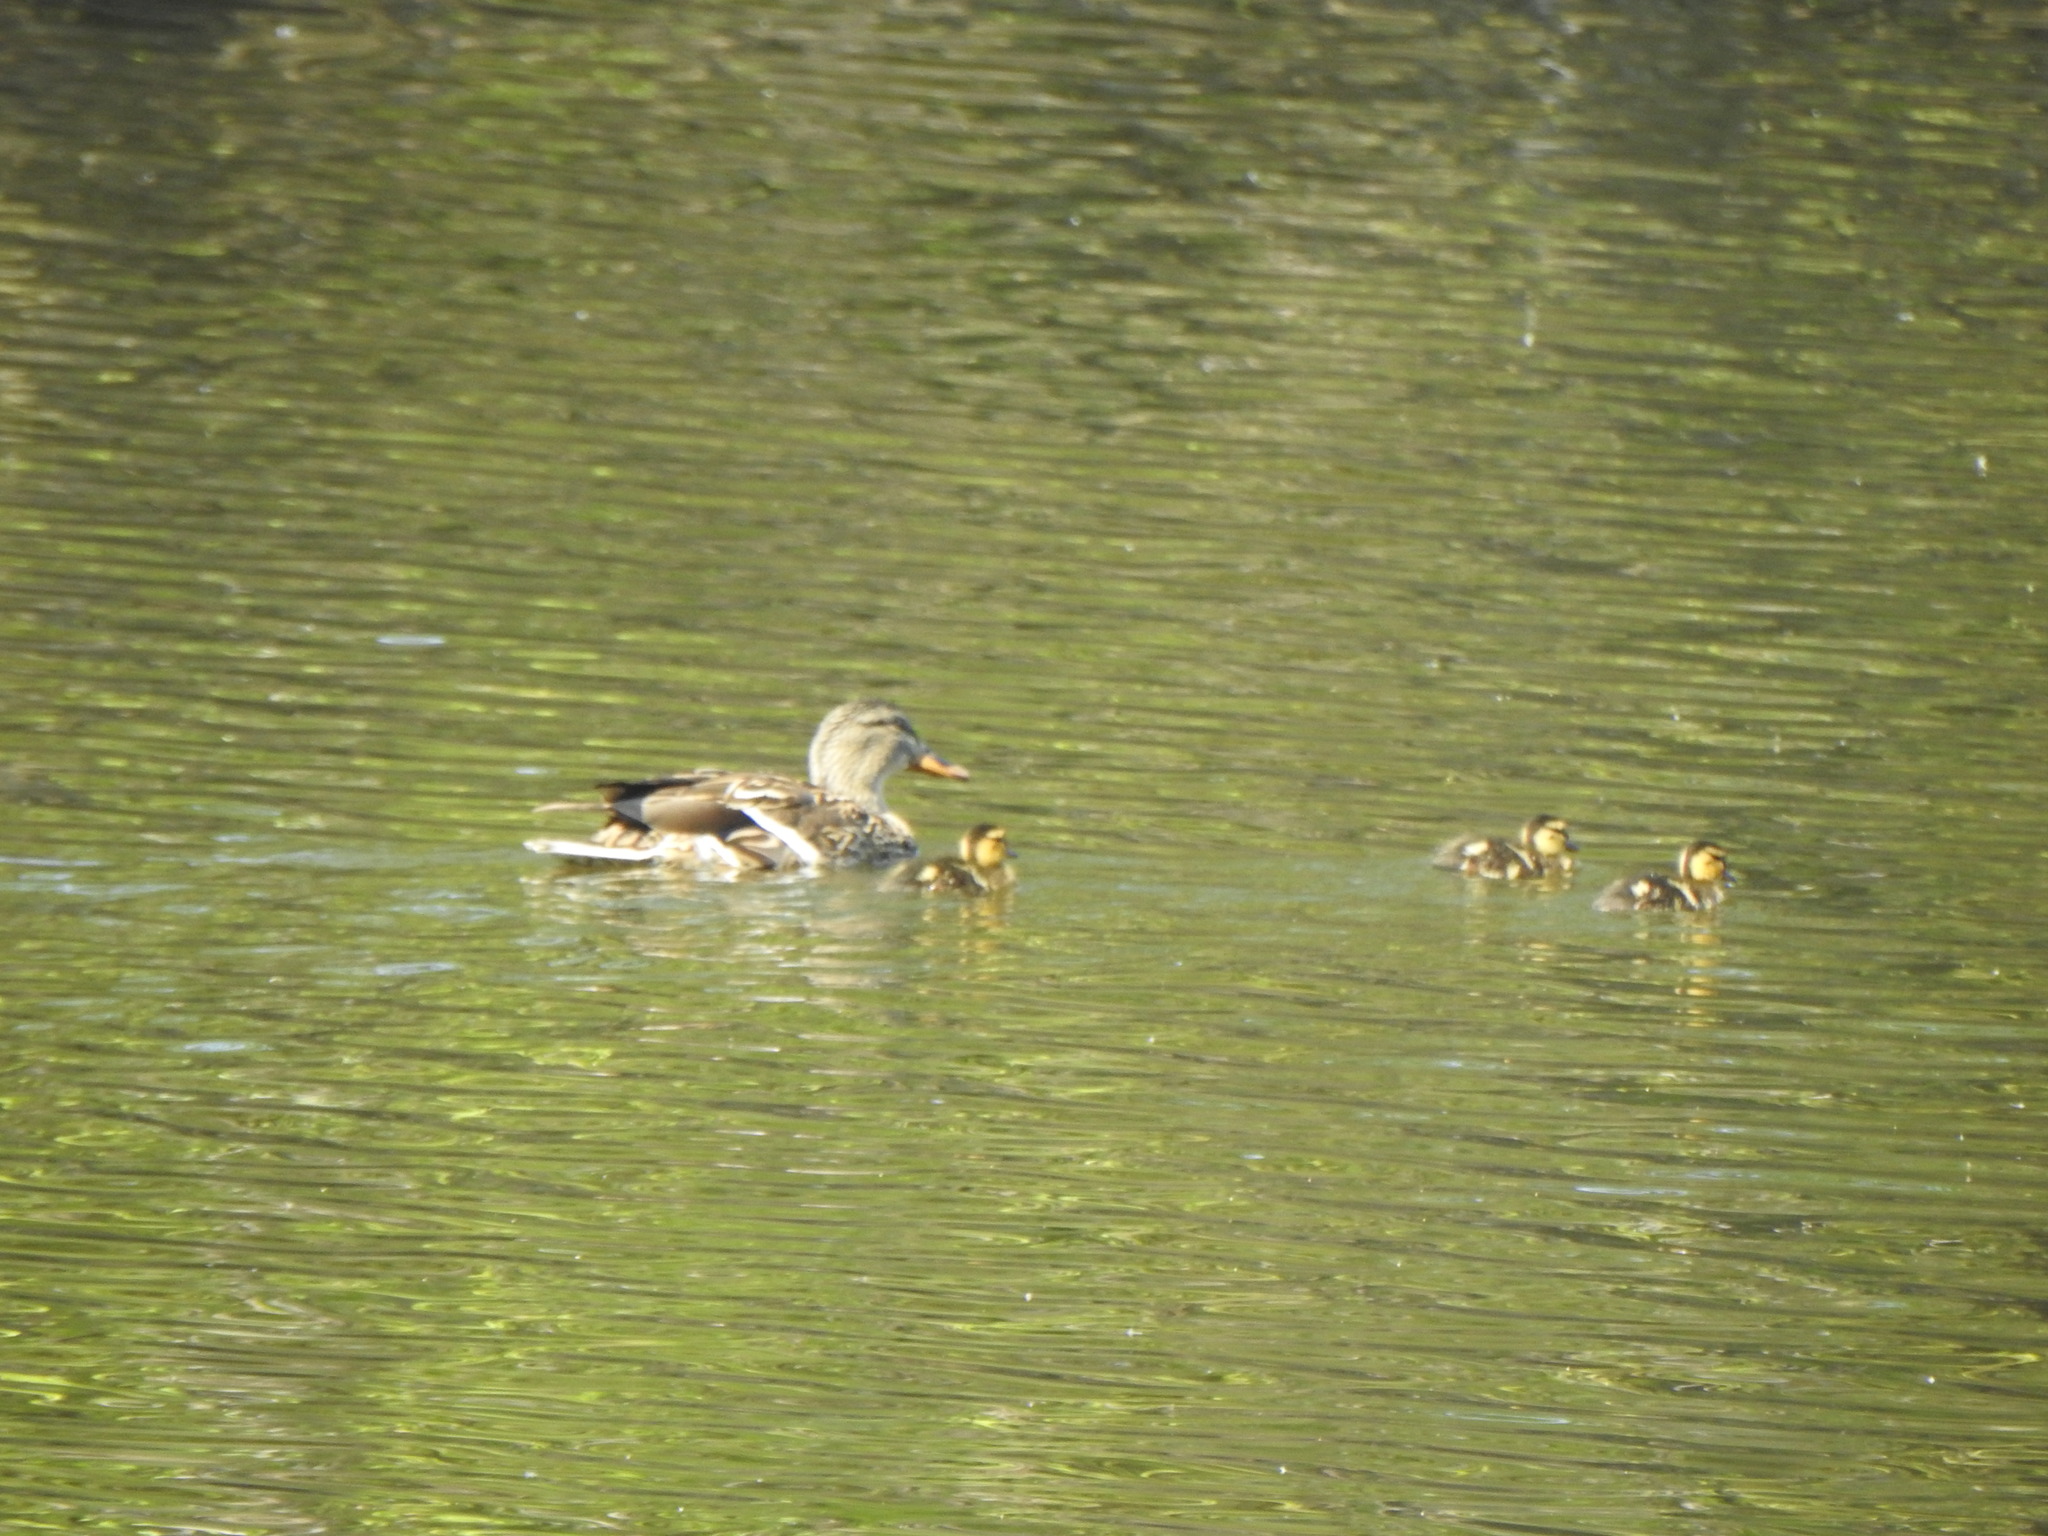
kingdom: Animalia
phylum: Chordata
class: Aves
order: Anseriformes
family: Anatidae
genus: Anas
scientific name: Anas platyrhynchos
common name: Mallard
